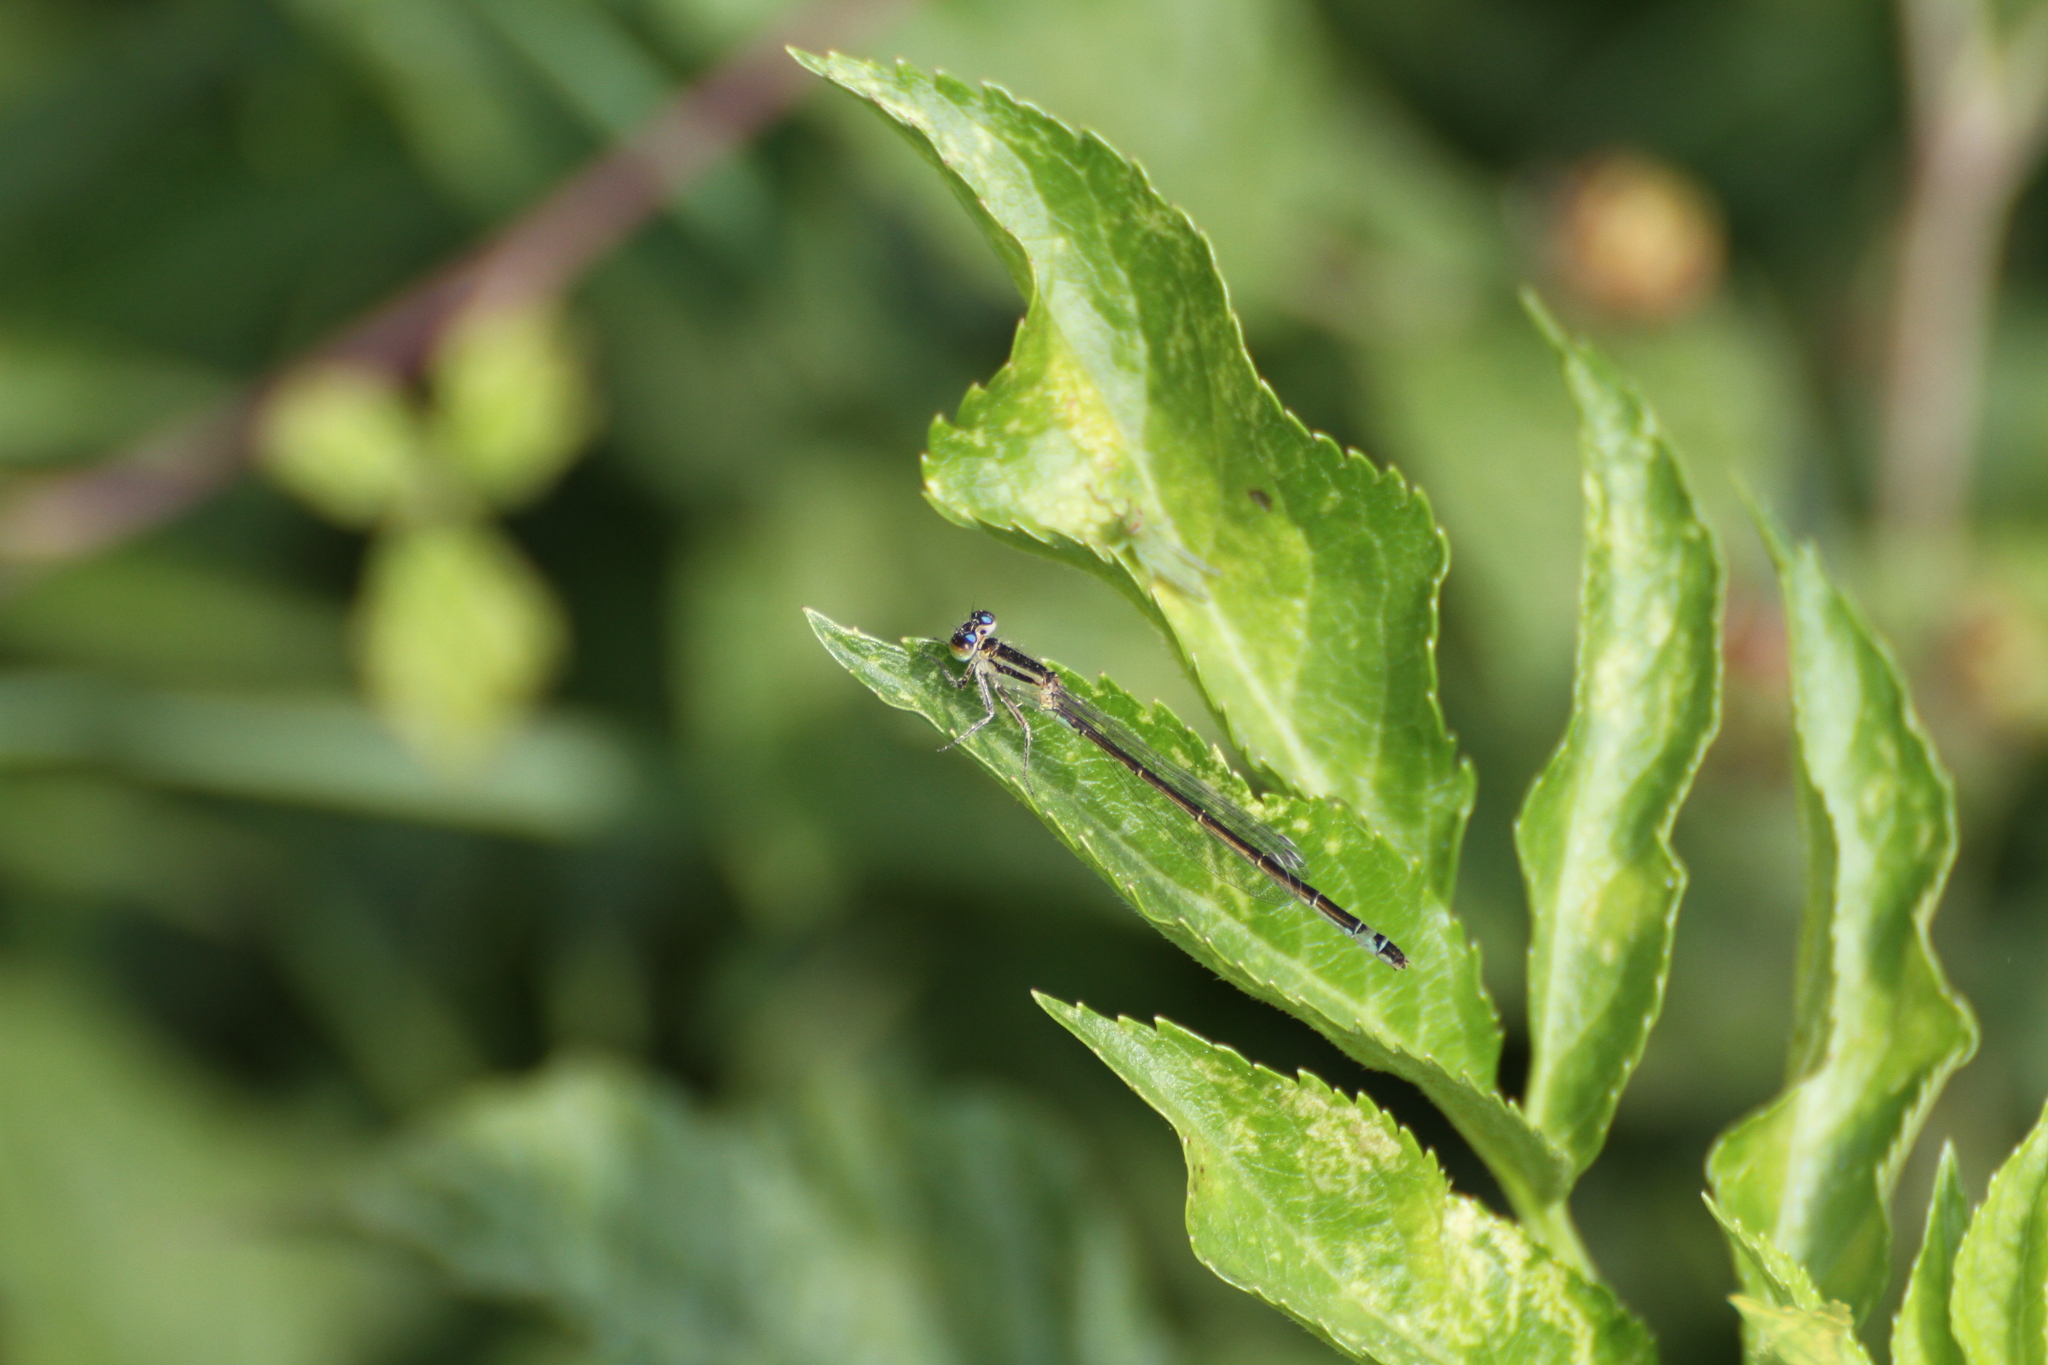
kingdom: Animalia
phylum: Arthropoda
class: Insecta
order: Odonata
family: Coenagrionidae
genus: Ischnura
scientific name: Ischnura elegans
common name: Blue-tailed damselfly
